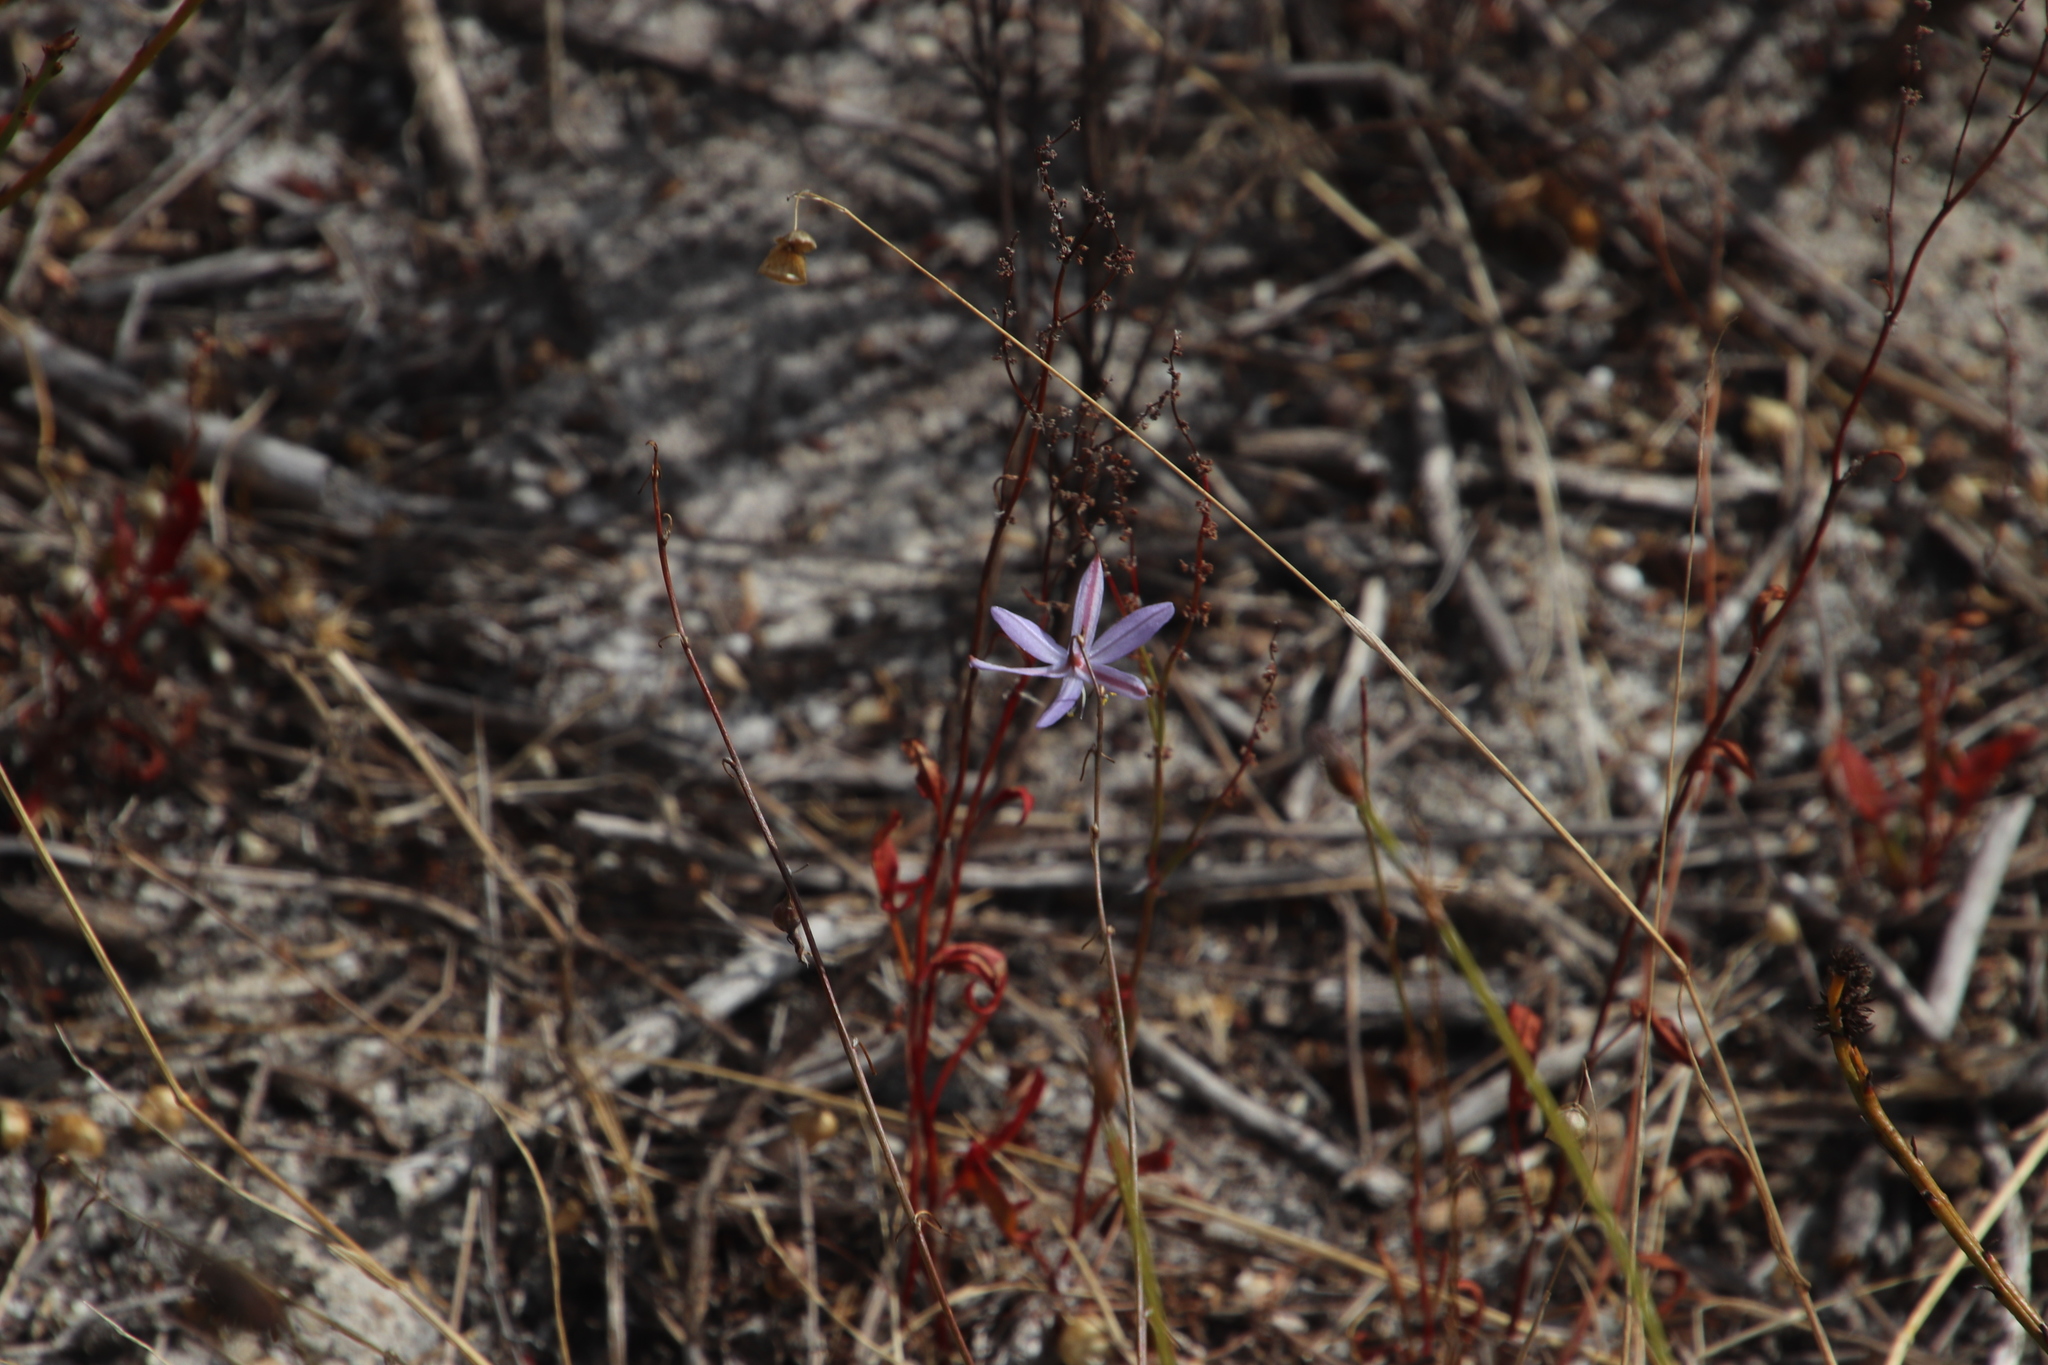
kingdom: Plantae
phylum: Tracheophyta
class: Liliopsida
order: Asparagales
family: Asphodelaceae
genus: Caesia
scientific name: Caesia contorta
